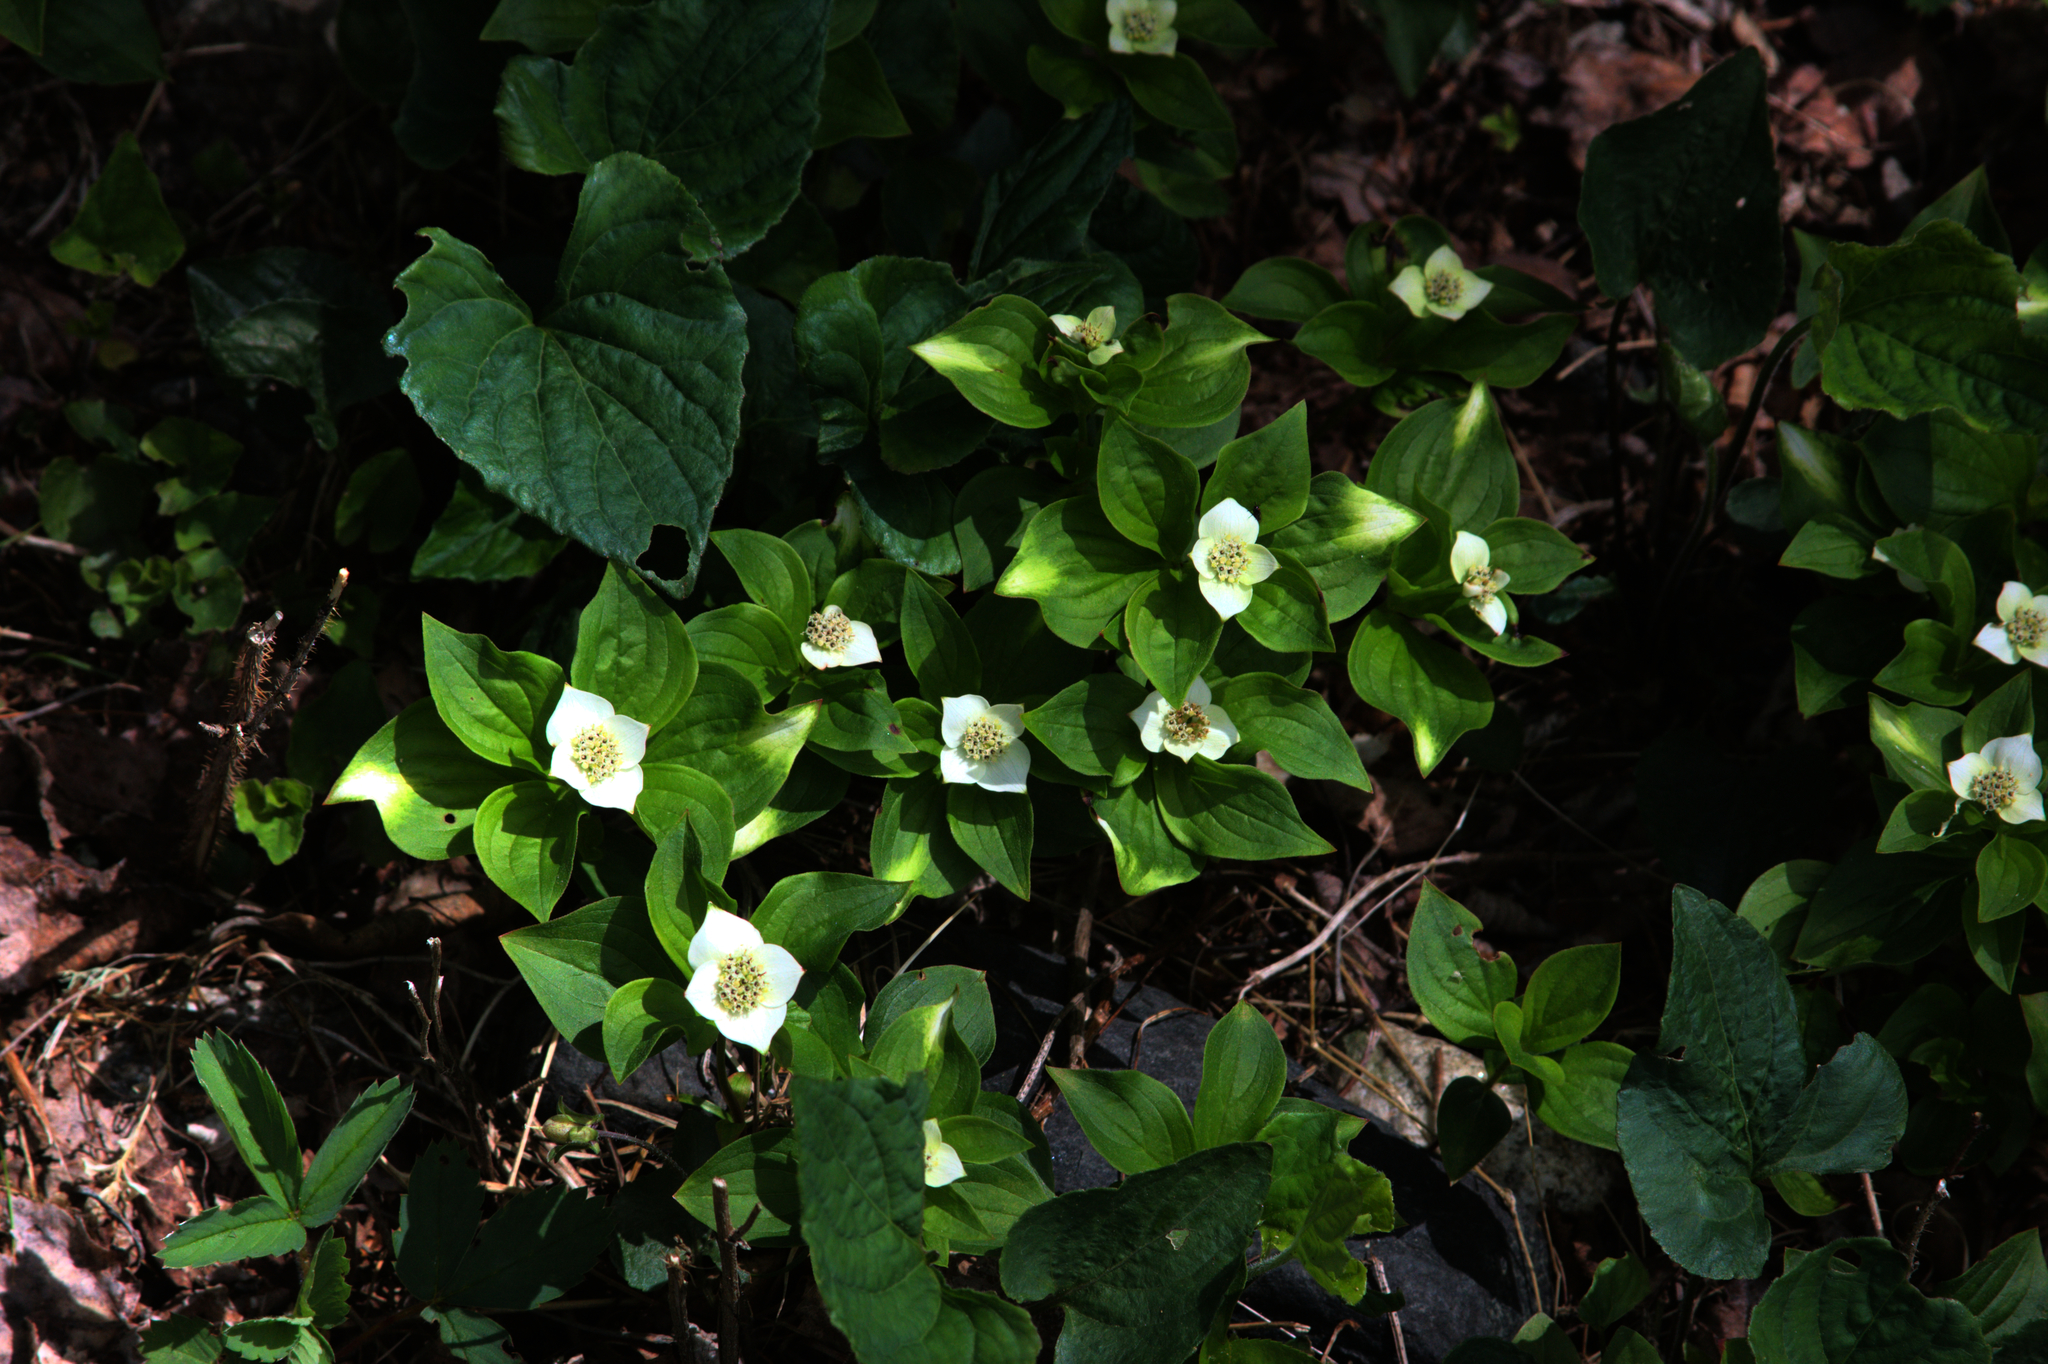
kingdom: Plantae
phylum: Tracheophyta
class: Magnoliopsida
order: Cornales
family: Cornaceae
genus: Cornus
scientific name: Cornus canadensis
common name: Creeping dogwood
